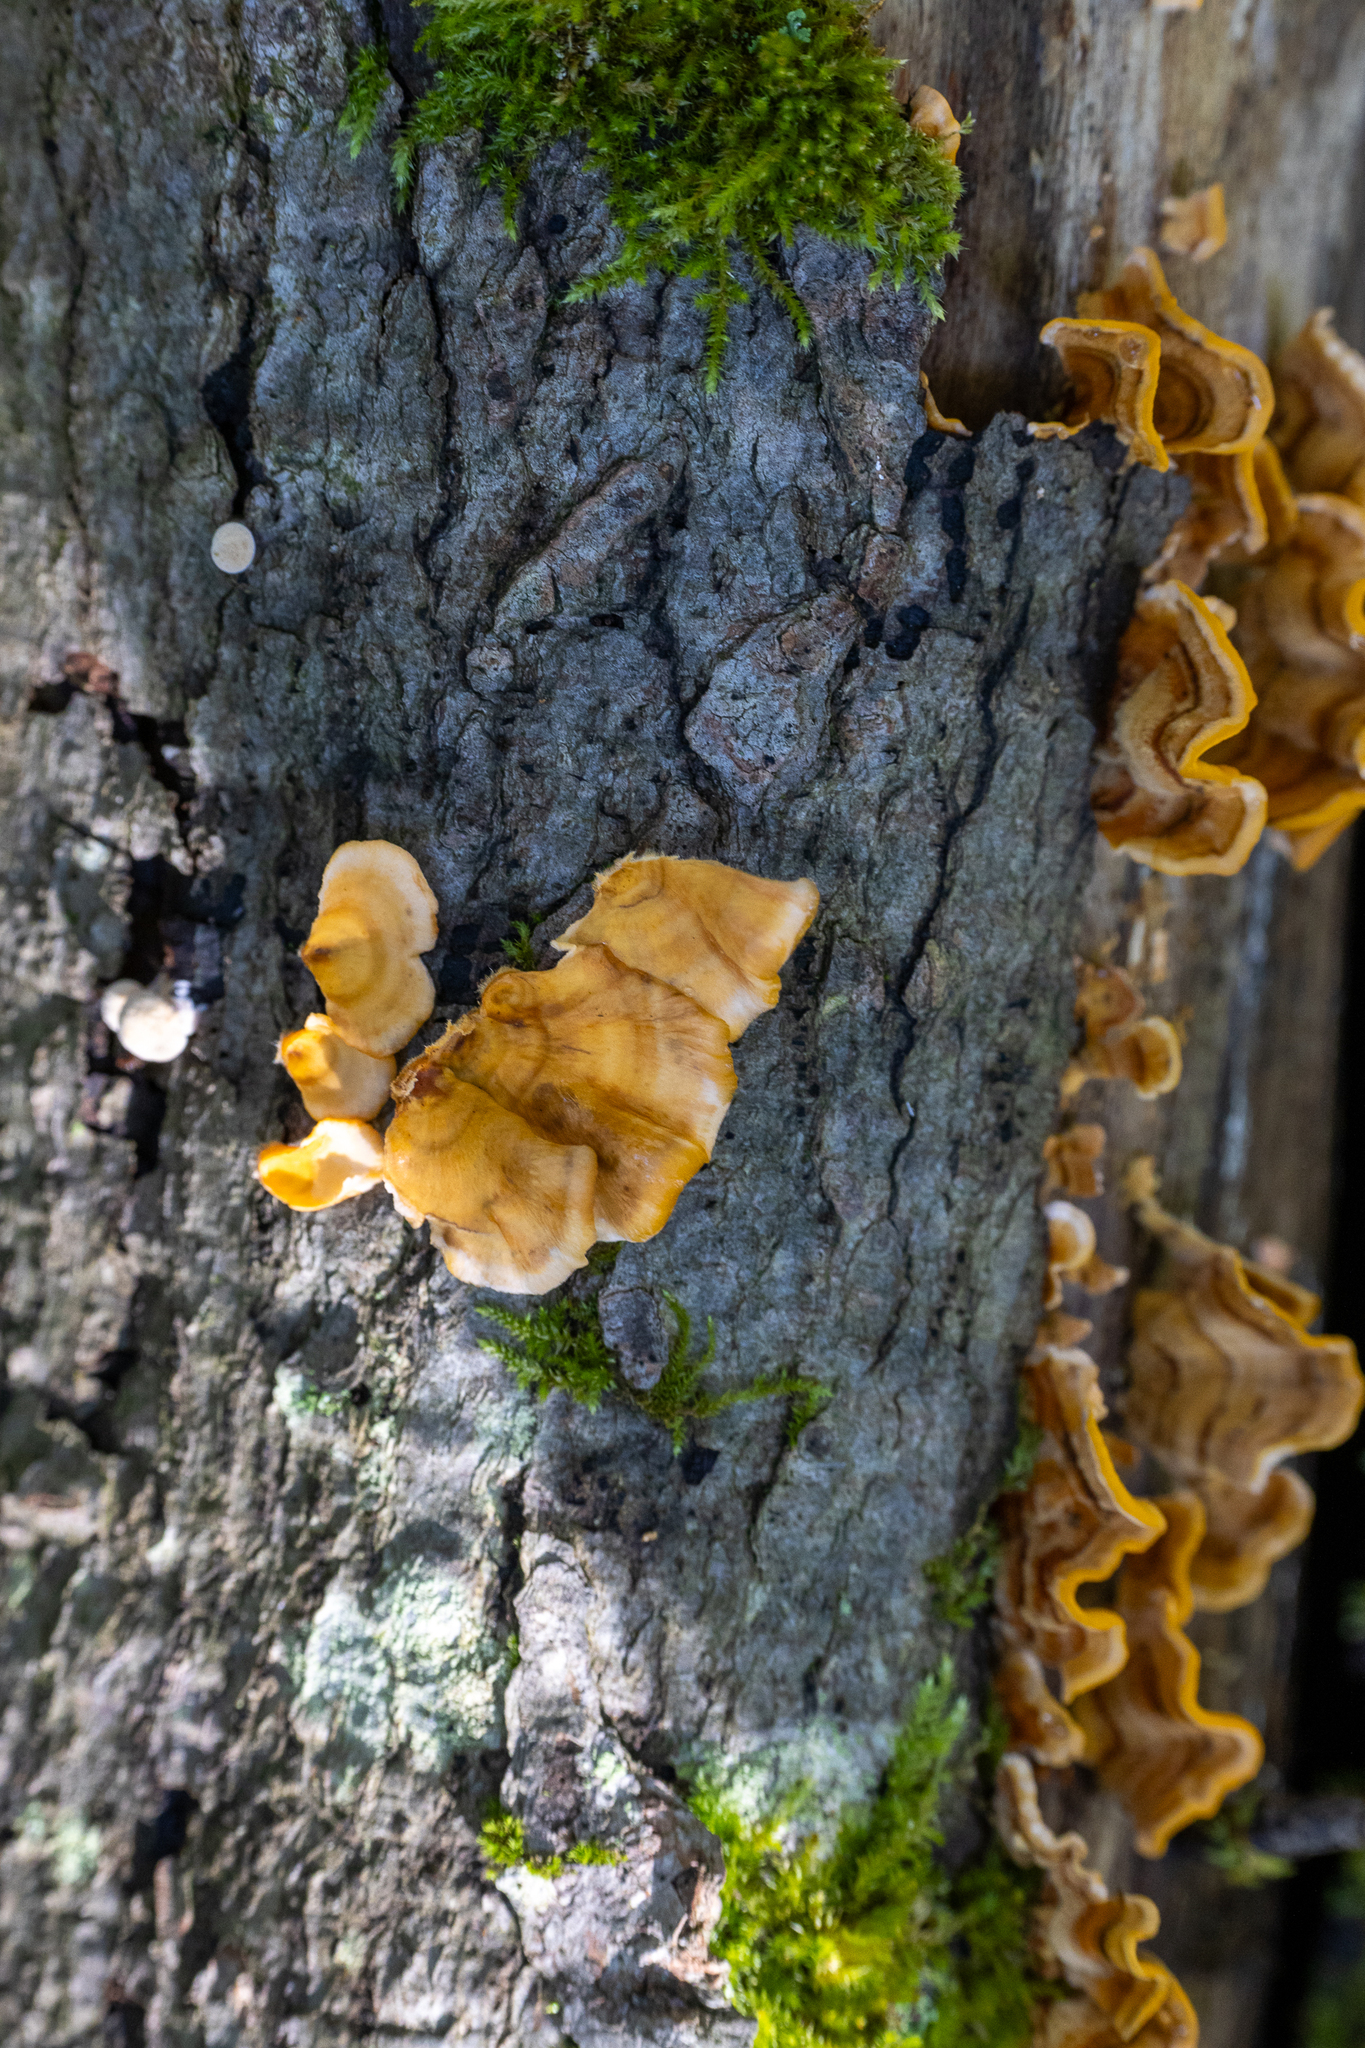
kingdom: Fungi
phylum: Basidiomycota
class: Agaricomycetes
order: Russulales
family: Stereaceae
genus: Stereum
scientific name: Stereum complicatum
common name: Crowded parchment
